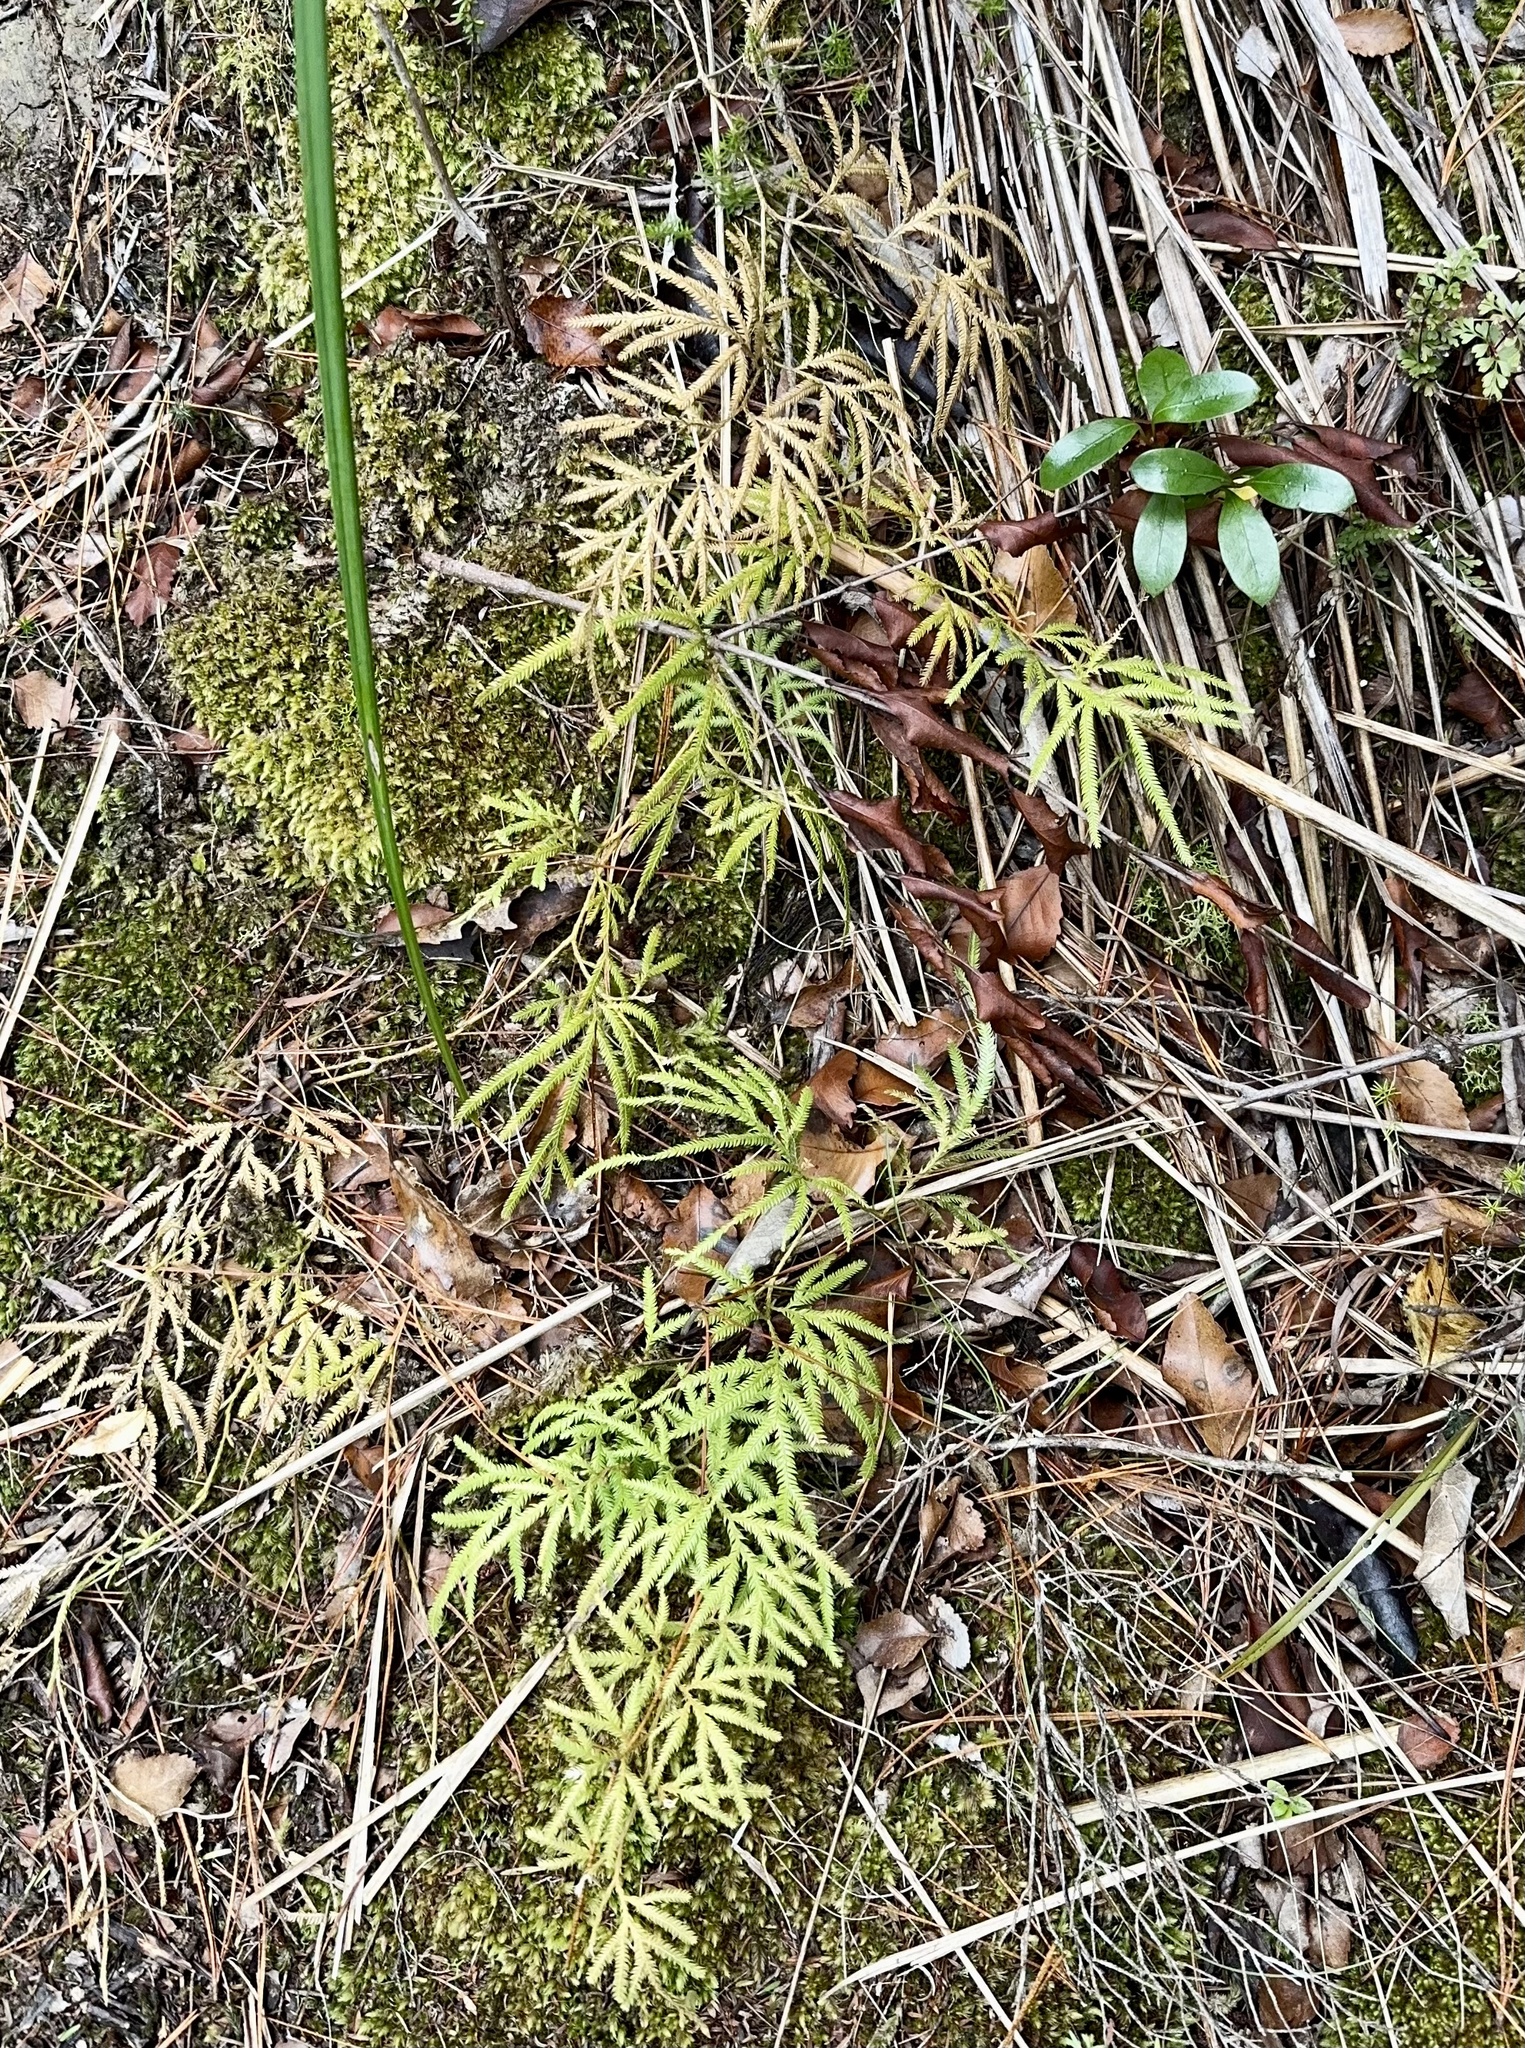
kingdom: Plantae
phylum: Tracheophyta
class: Lycopodiopsida
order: Lycopodiales
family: Lycopodiaceae
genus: Lycopodium
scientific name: Lycopodium volubile
